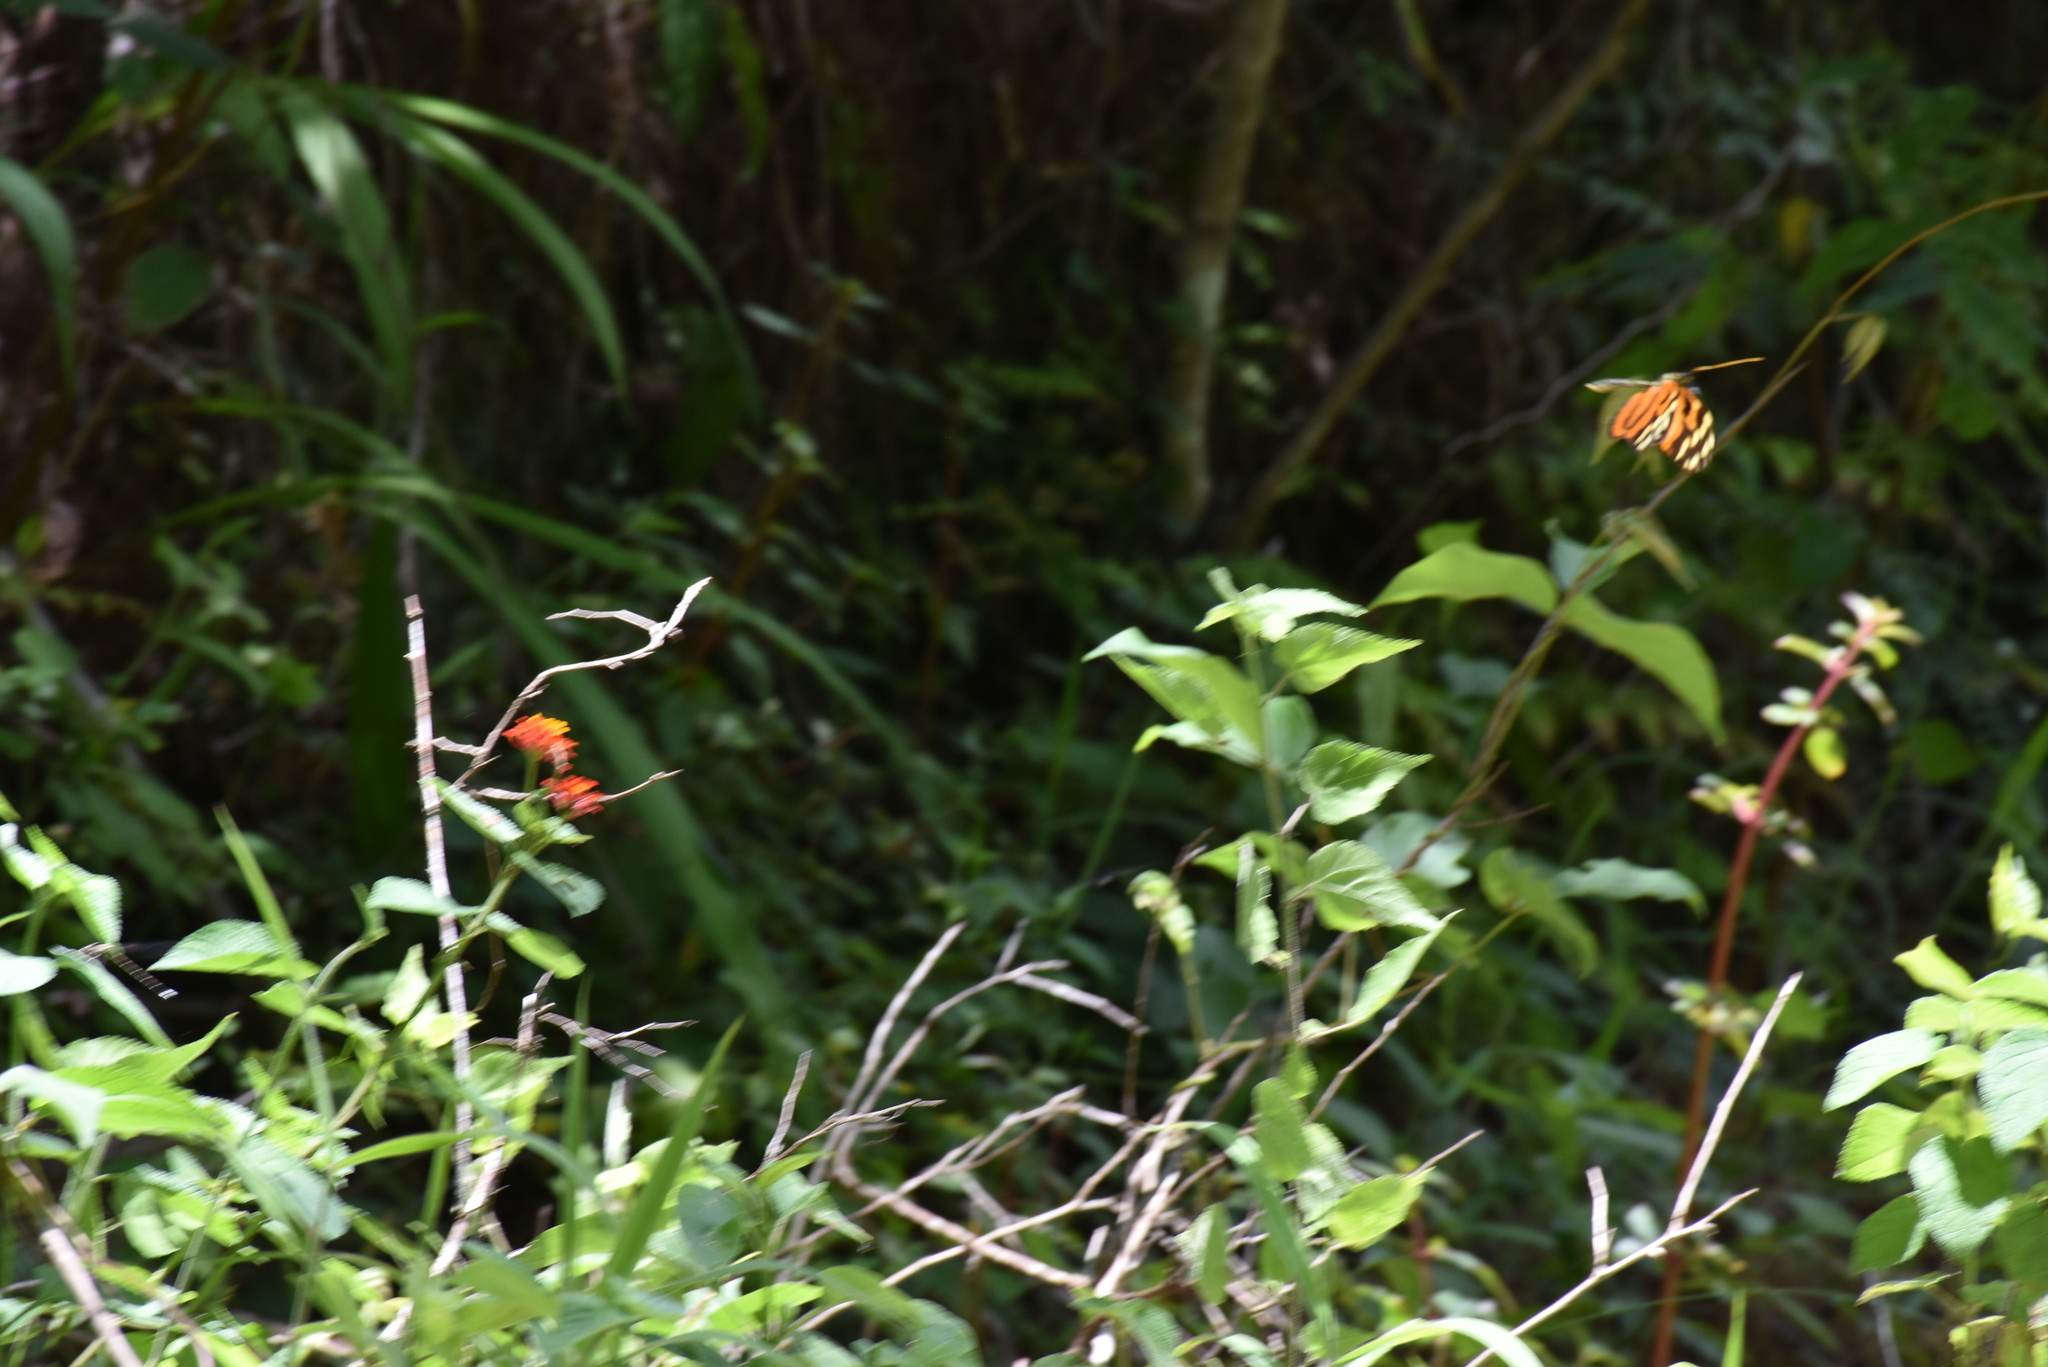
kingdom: Animalia
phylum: Arthropoda
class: Insecta
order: Lepidoptera
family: Nymphalidae
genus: Heliconius
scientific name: Heliconius ismenius
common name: Ismenius tiger
